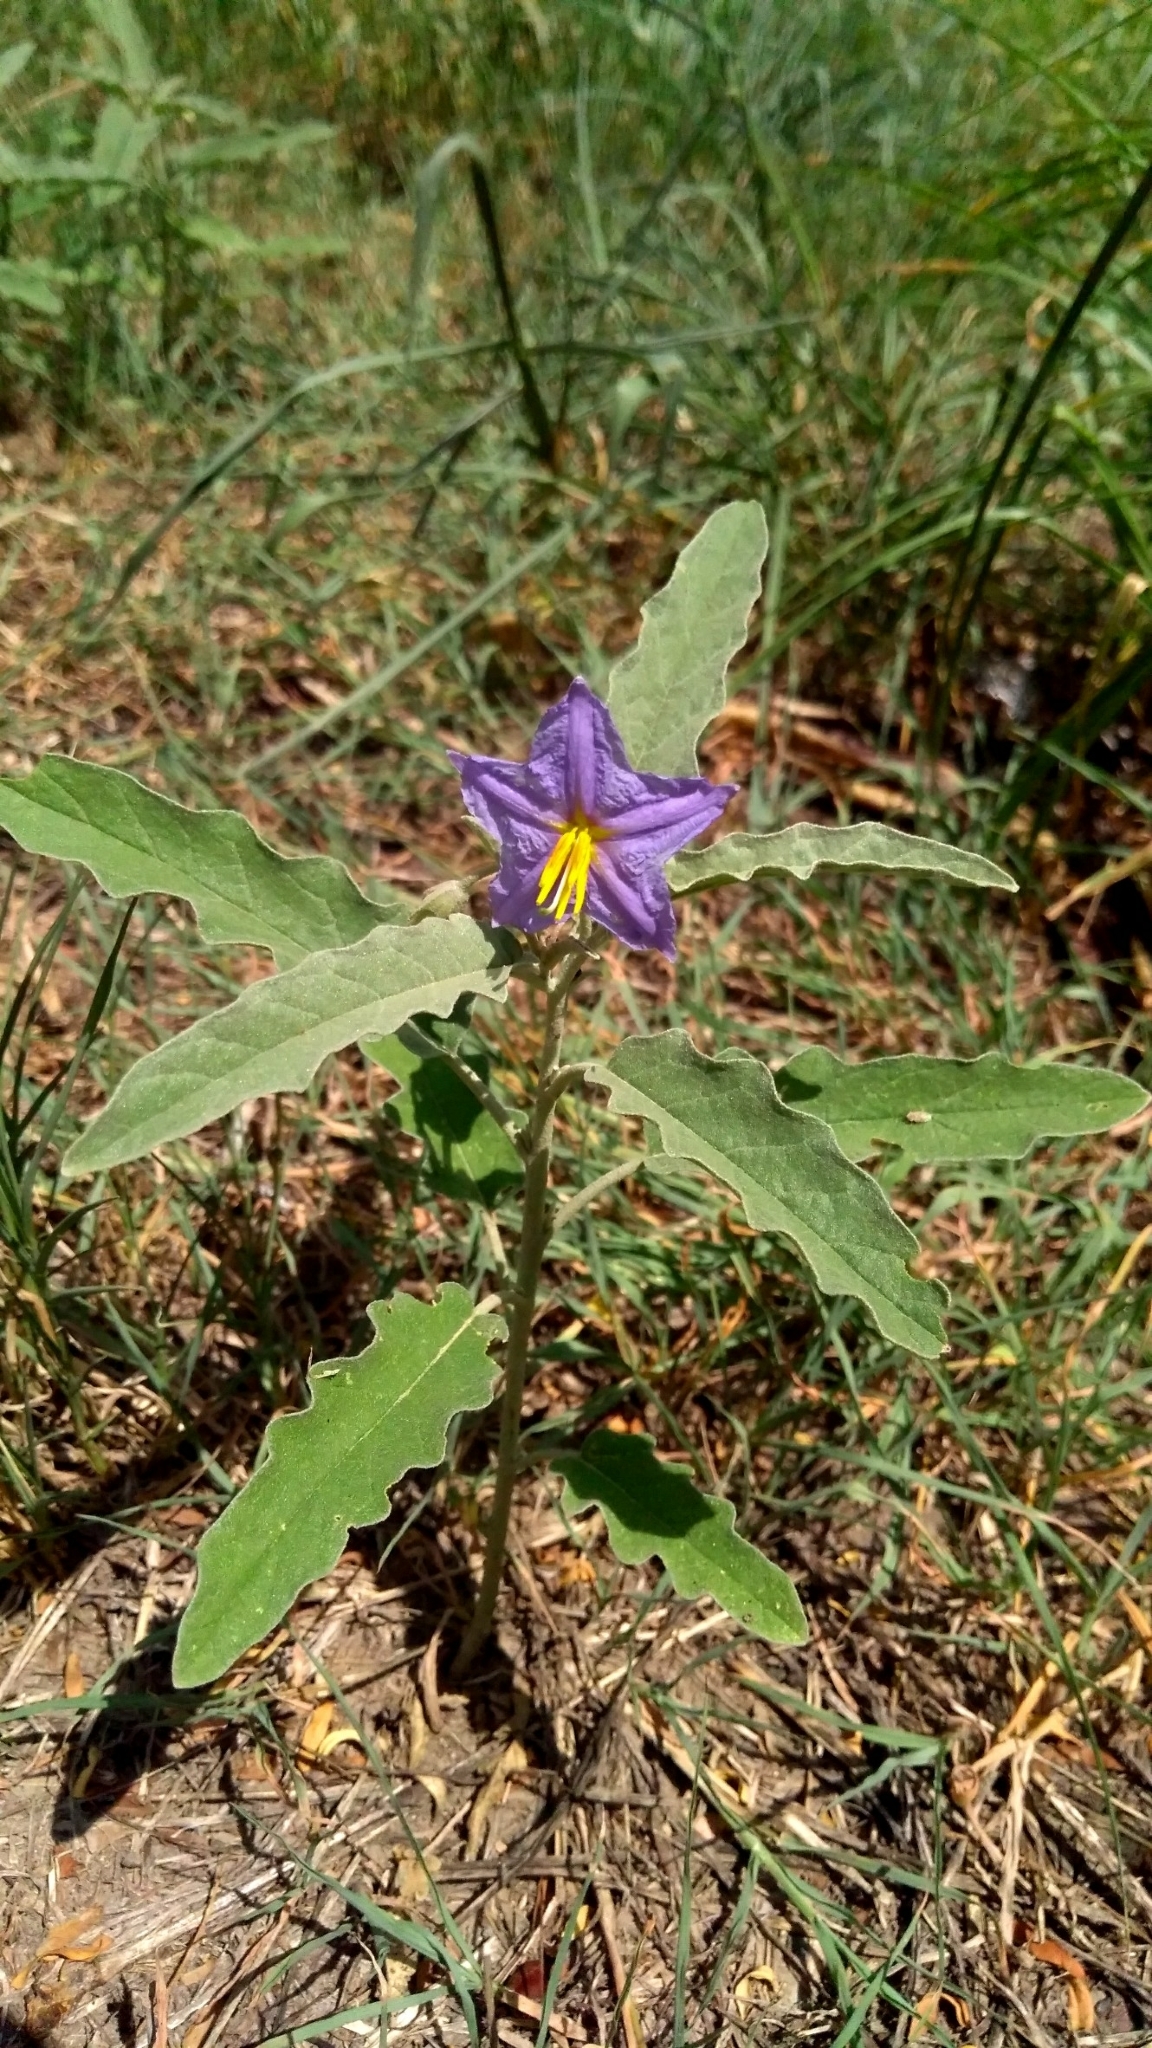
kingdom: Plantae
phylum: Tracheophyta
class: Magnoliopsida
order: Solanales
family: Solanaceae
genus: Solanum
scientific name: Solanum elaeagnifolium
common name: Silverleaf nightshade
